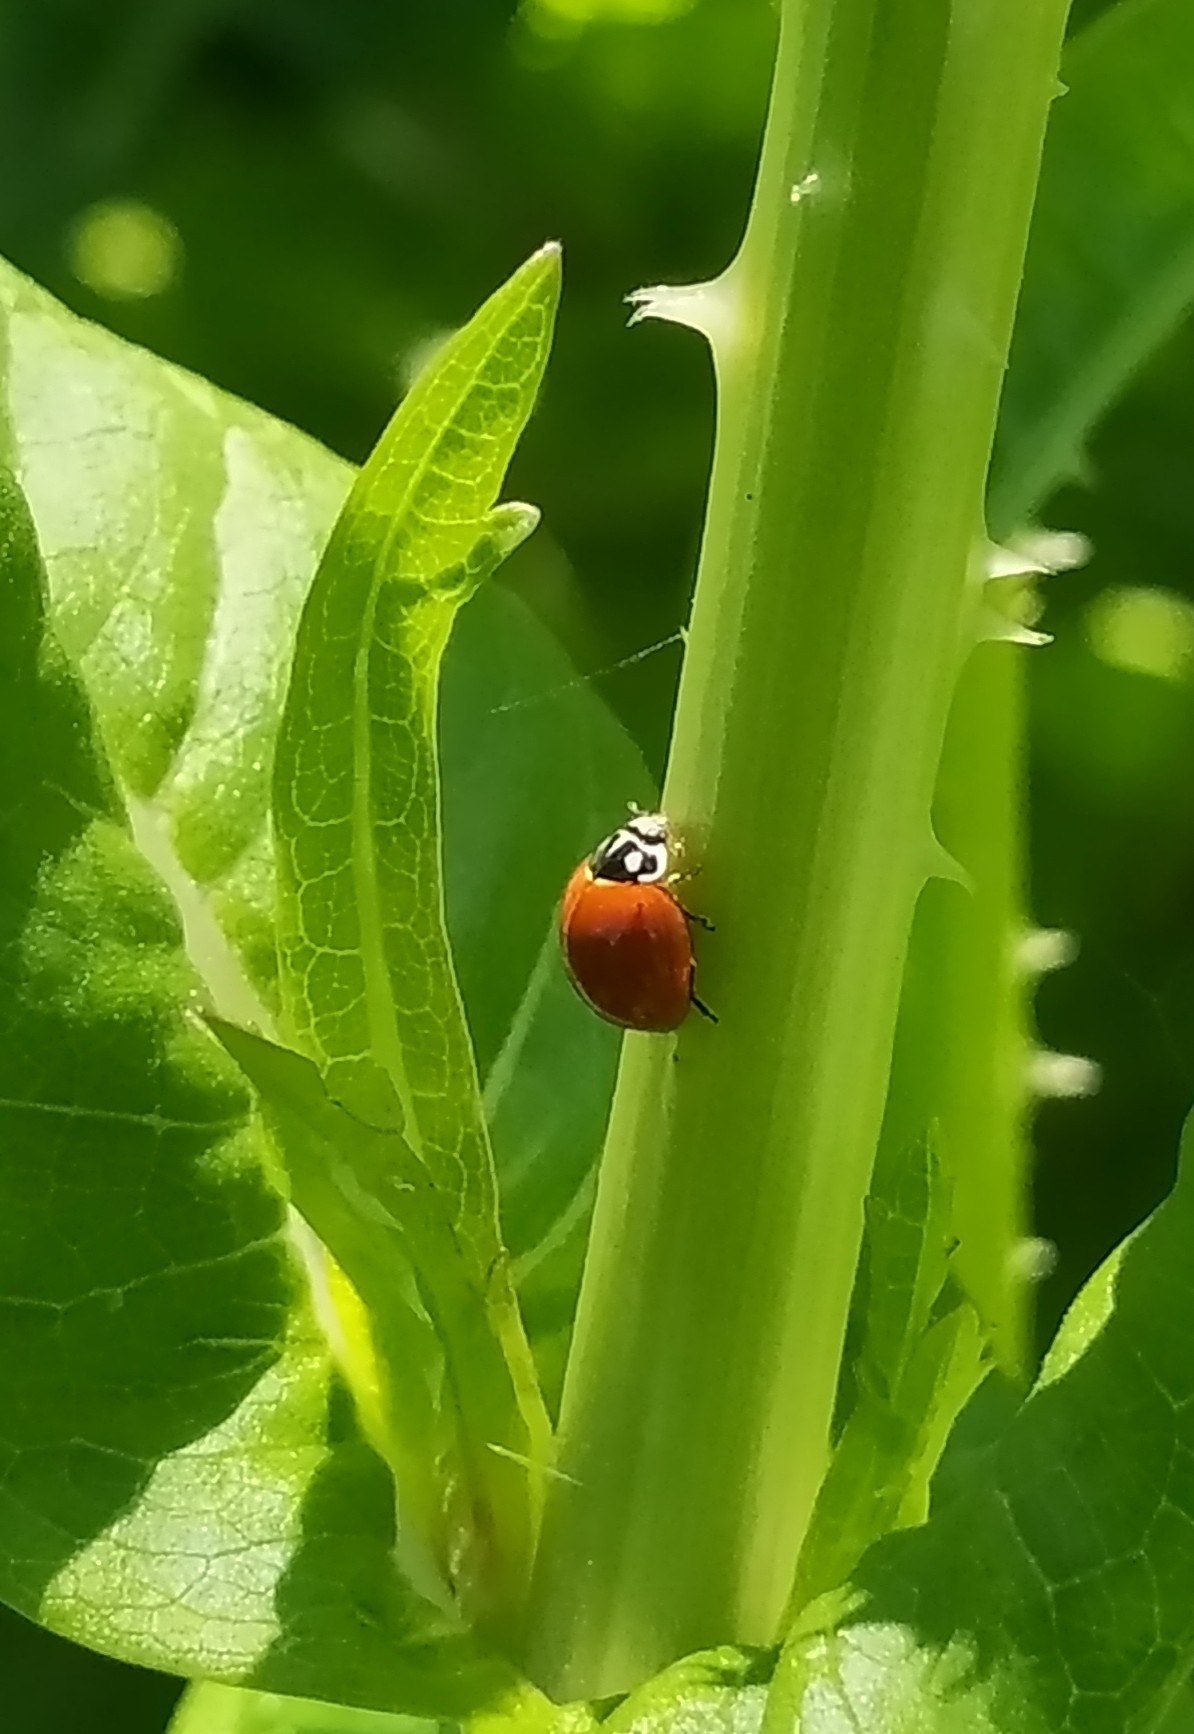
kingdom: Animalia
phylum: Arthropoda
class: Insecta
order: Coleoptera
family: Coccinellidae
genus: Cycloneda
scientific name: Cycloneda sanguinea
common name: Ladybird beetle
